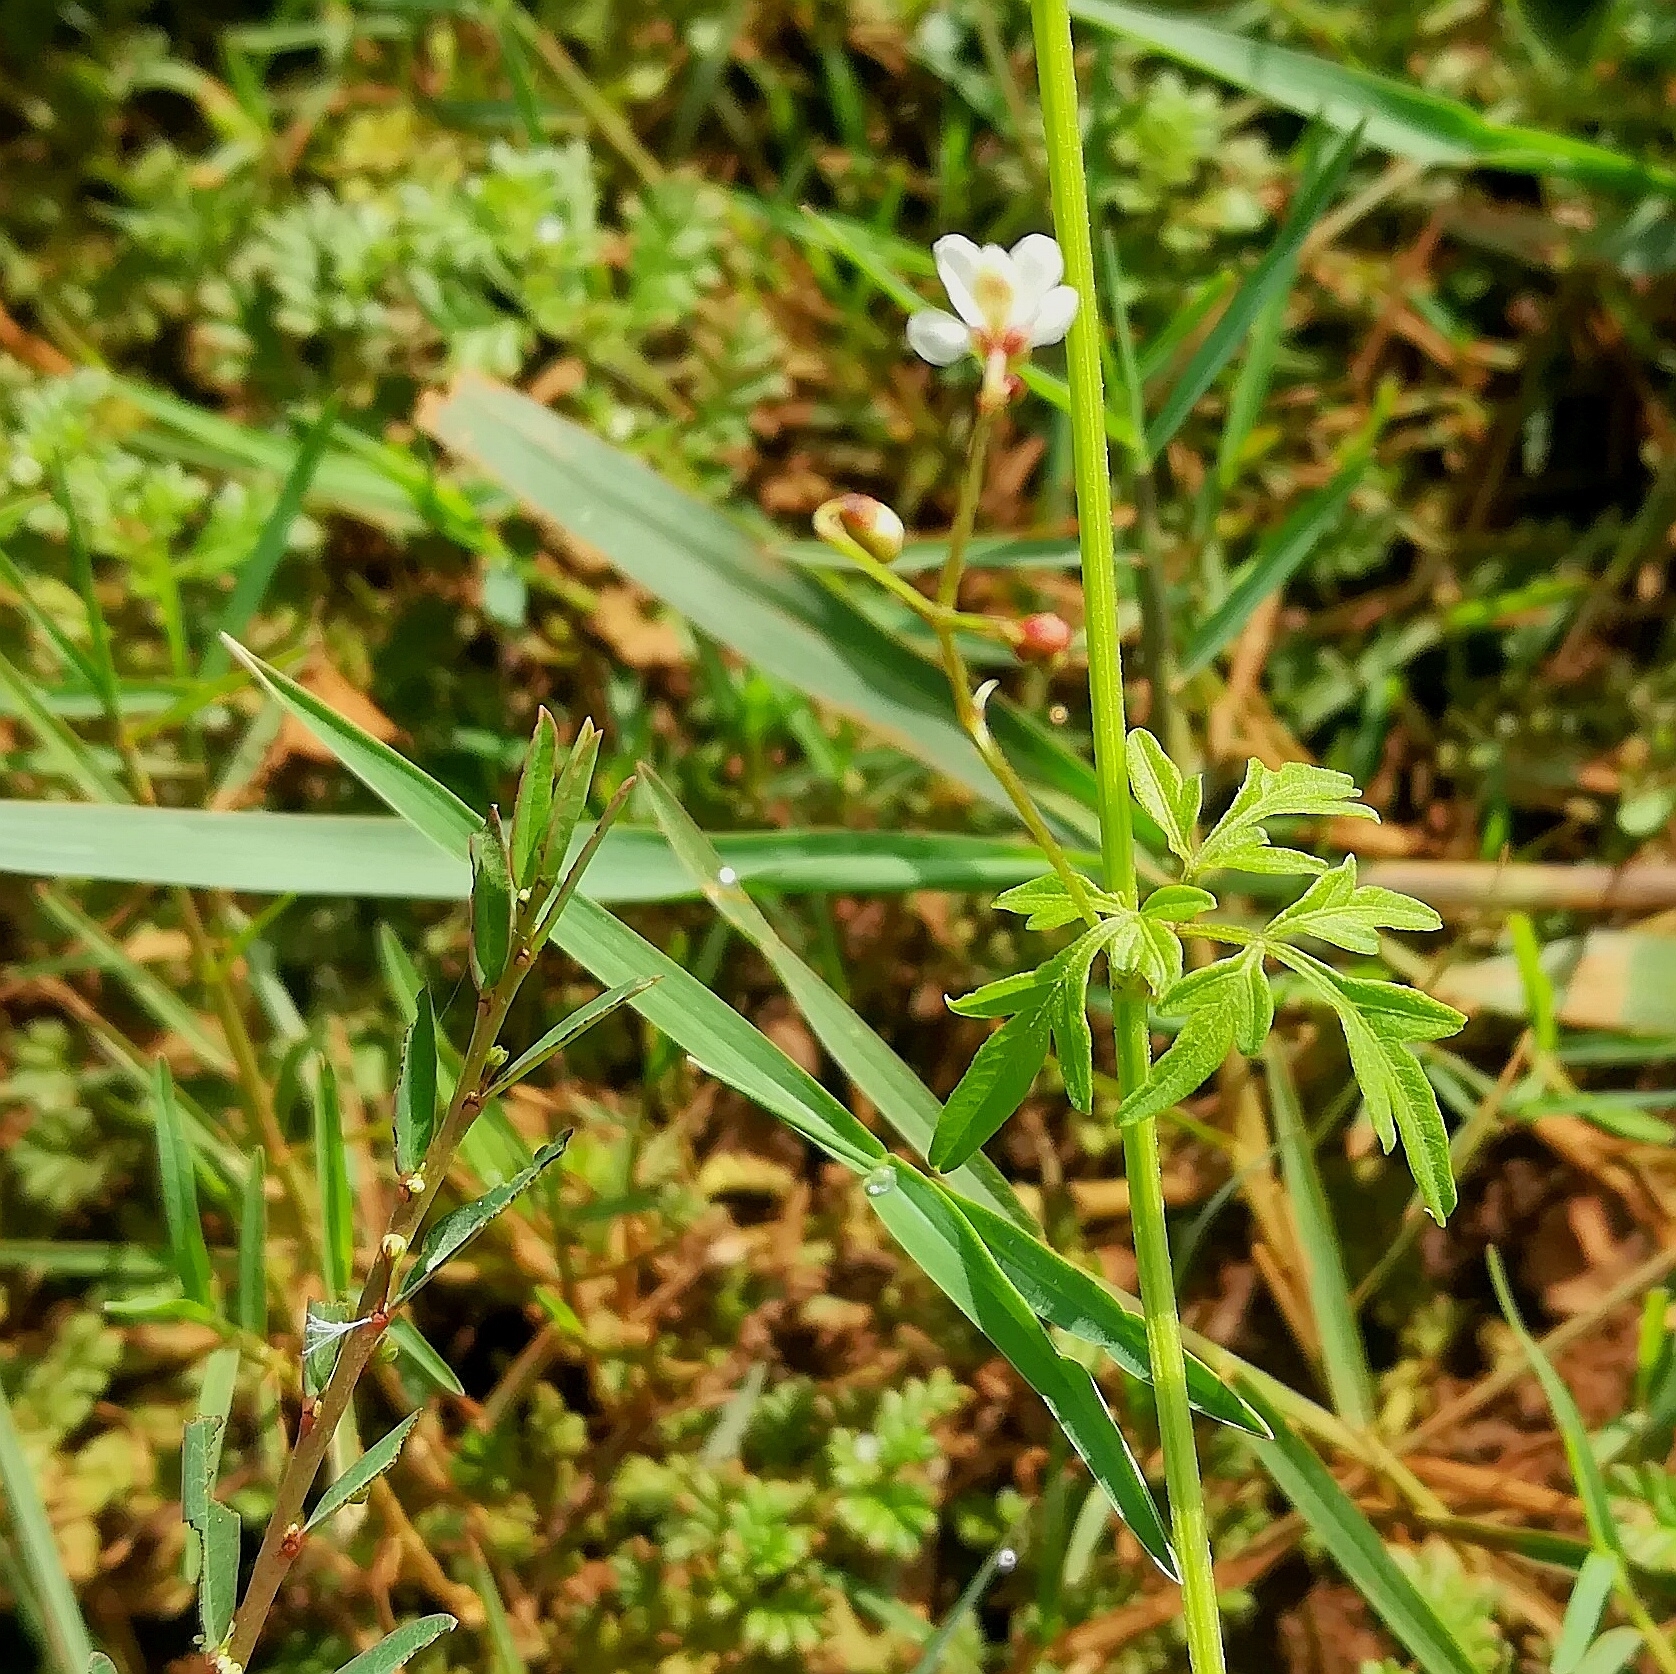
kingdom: Plantae
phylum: Tracheophyta
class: Magnoliopsida
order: Sapindales
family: Sapindaceae
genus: Cardiospermum
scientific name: Cardiospermum halicacabum
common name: Balloon vine
